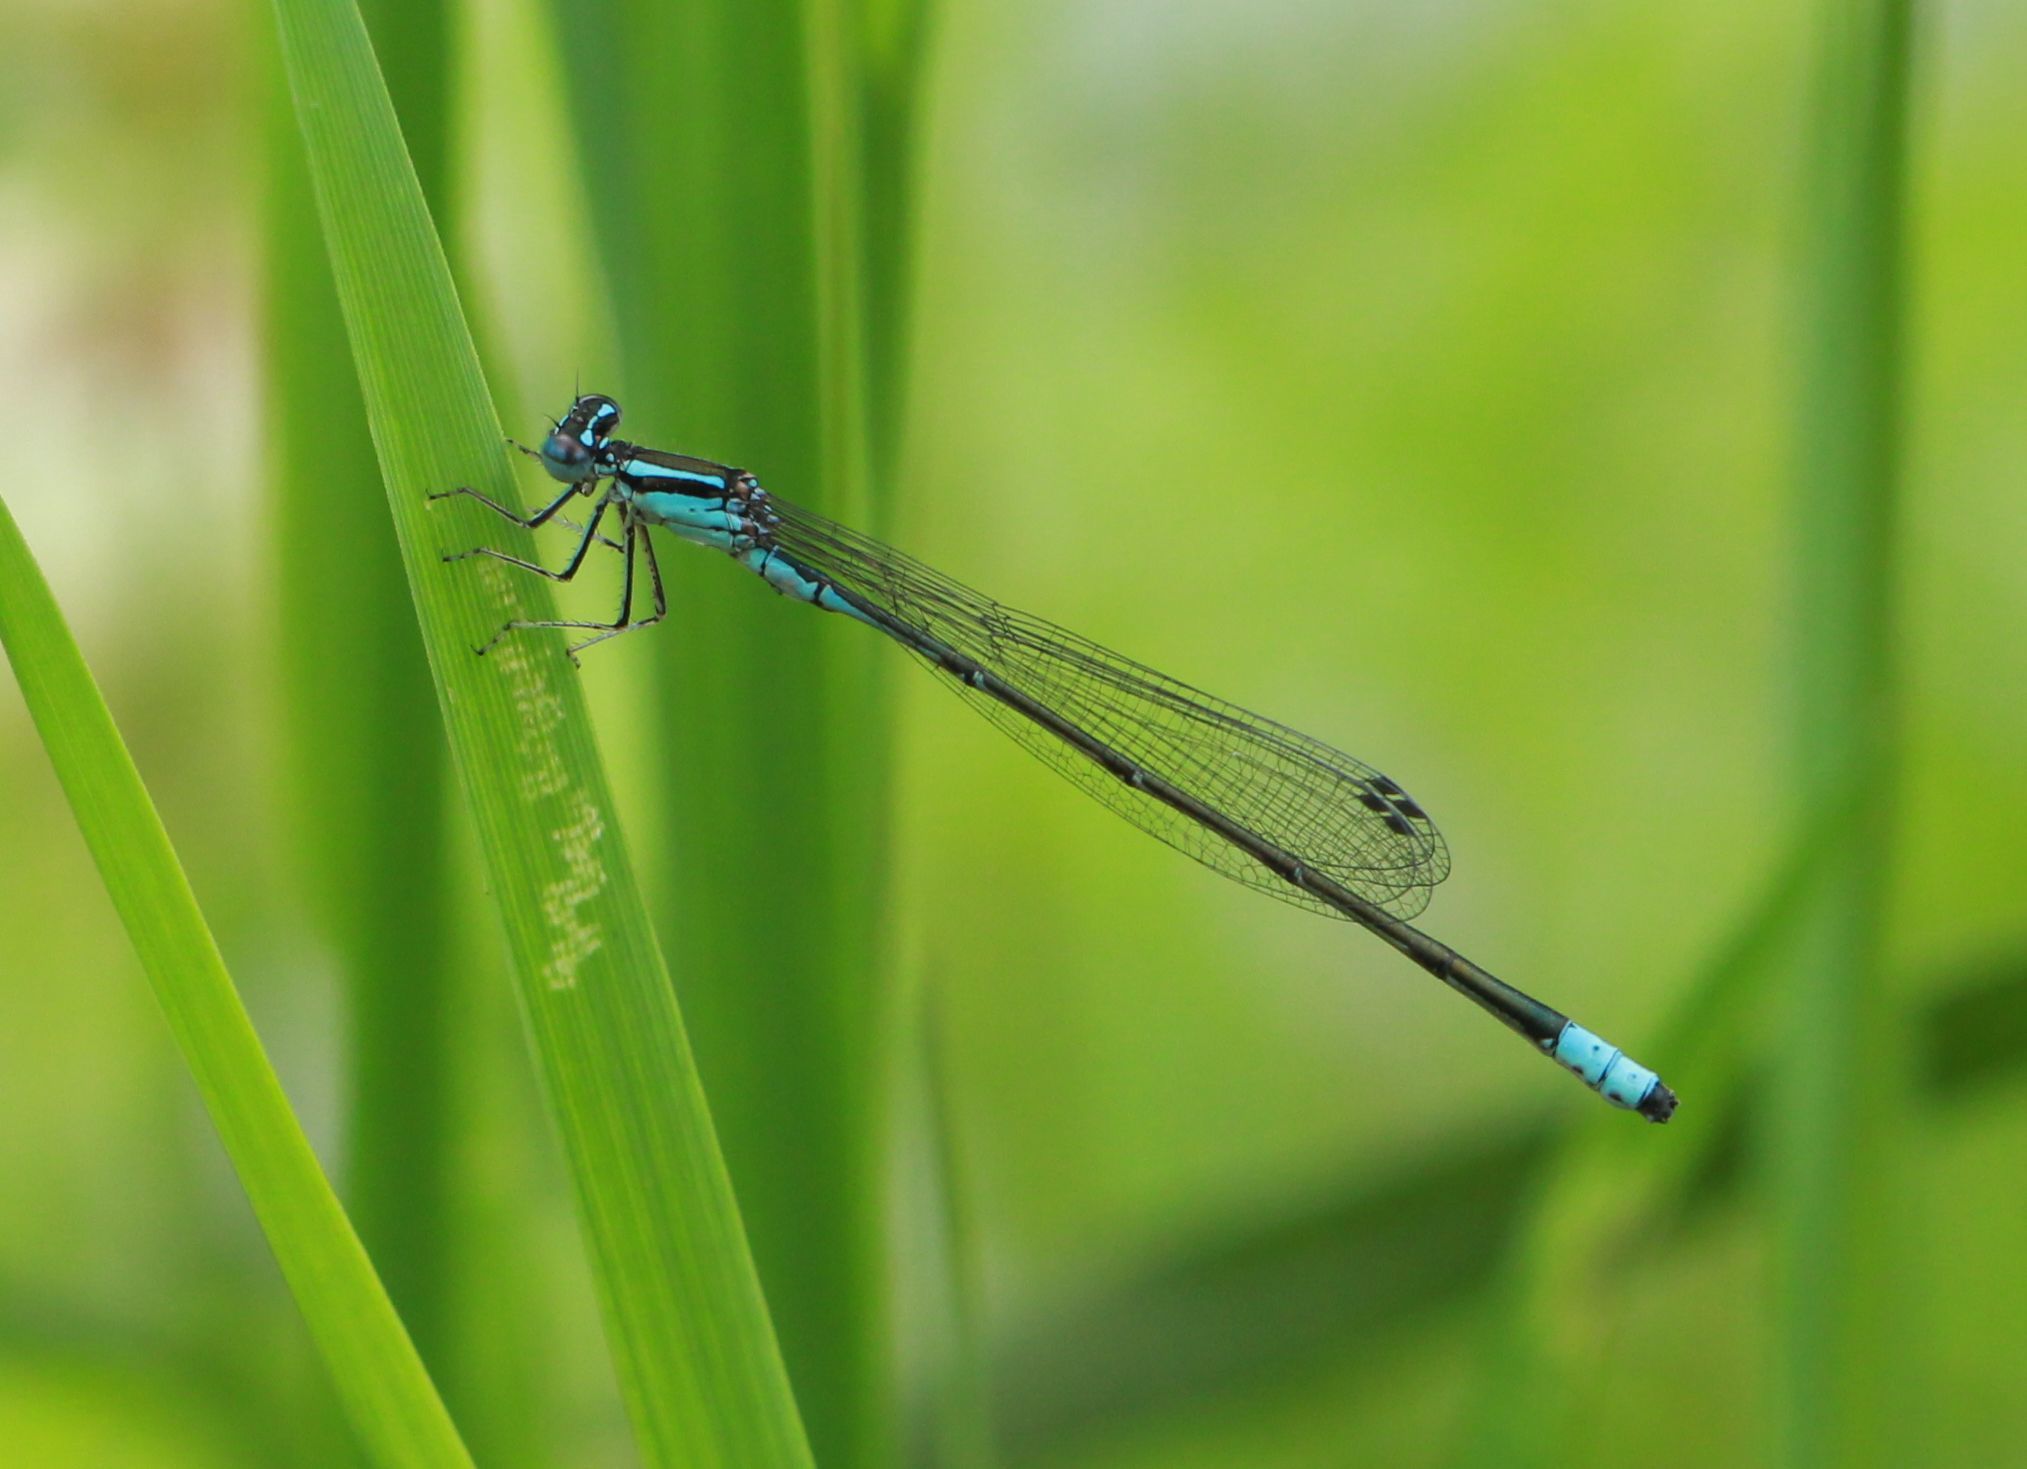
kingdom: Animalia
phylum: Arthropoda
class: Insecta
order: Odonata
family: Coenagrionidae
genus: Enallagma
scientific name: Enallagma divagans
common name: Turquoise bluet
